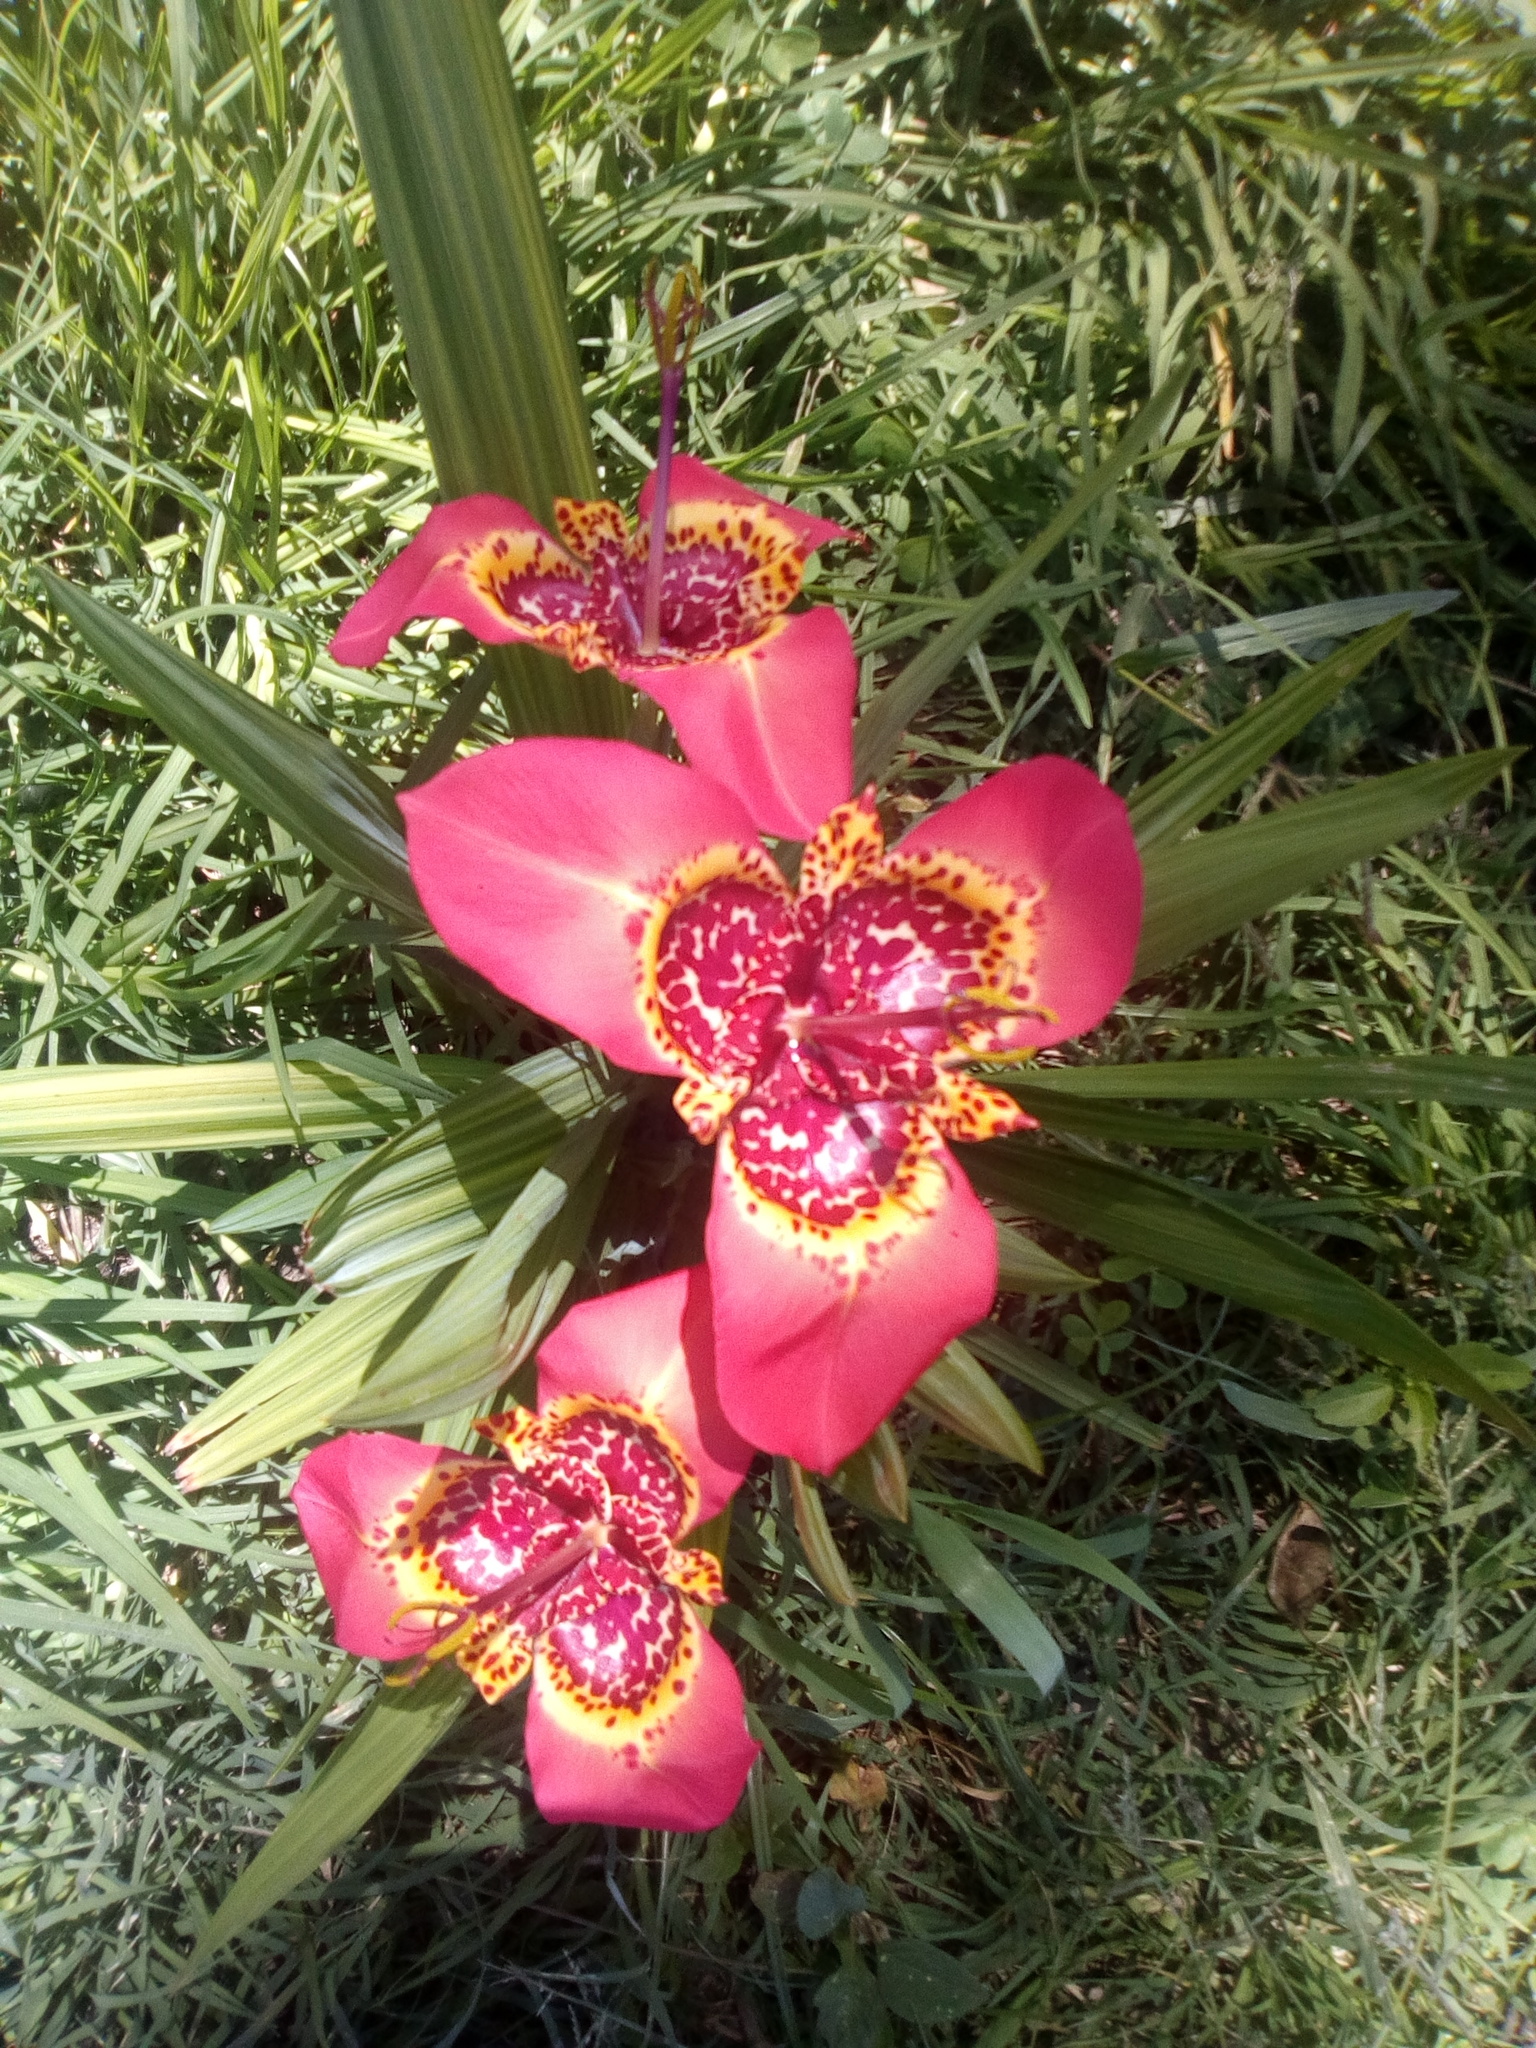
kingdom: Plantae
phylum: Tracheophyta
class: Liliopsida
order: Asparagales
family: Iridaceae
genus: Tigridia
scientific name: Tigridia pavonia
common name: Peacock-flower
